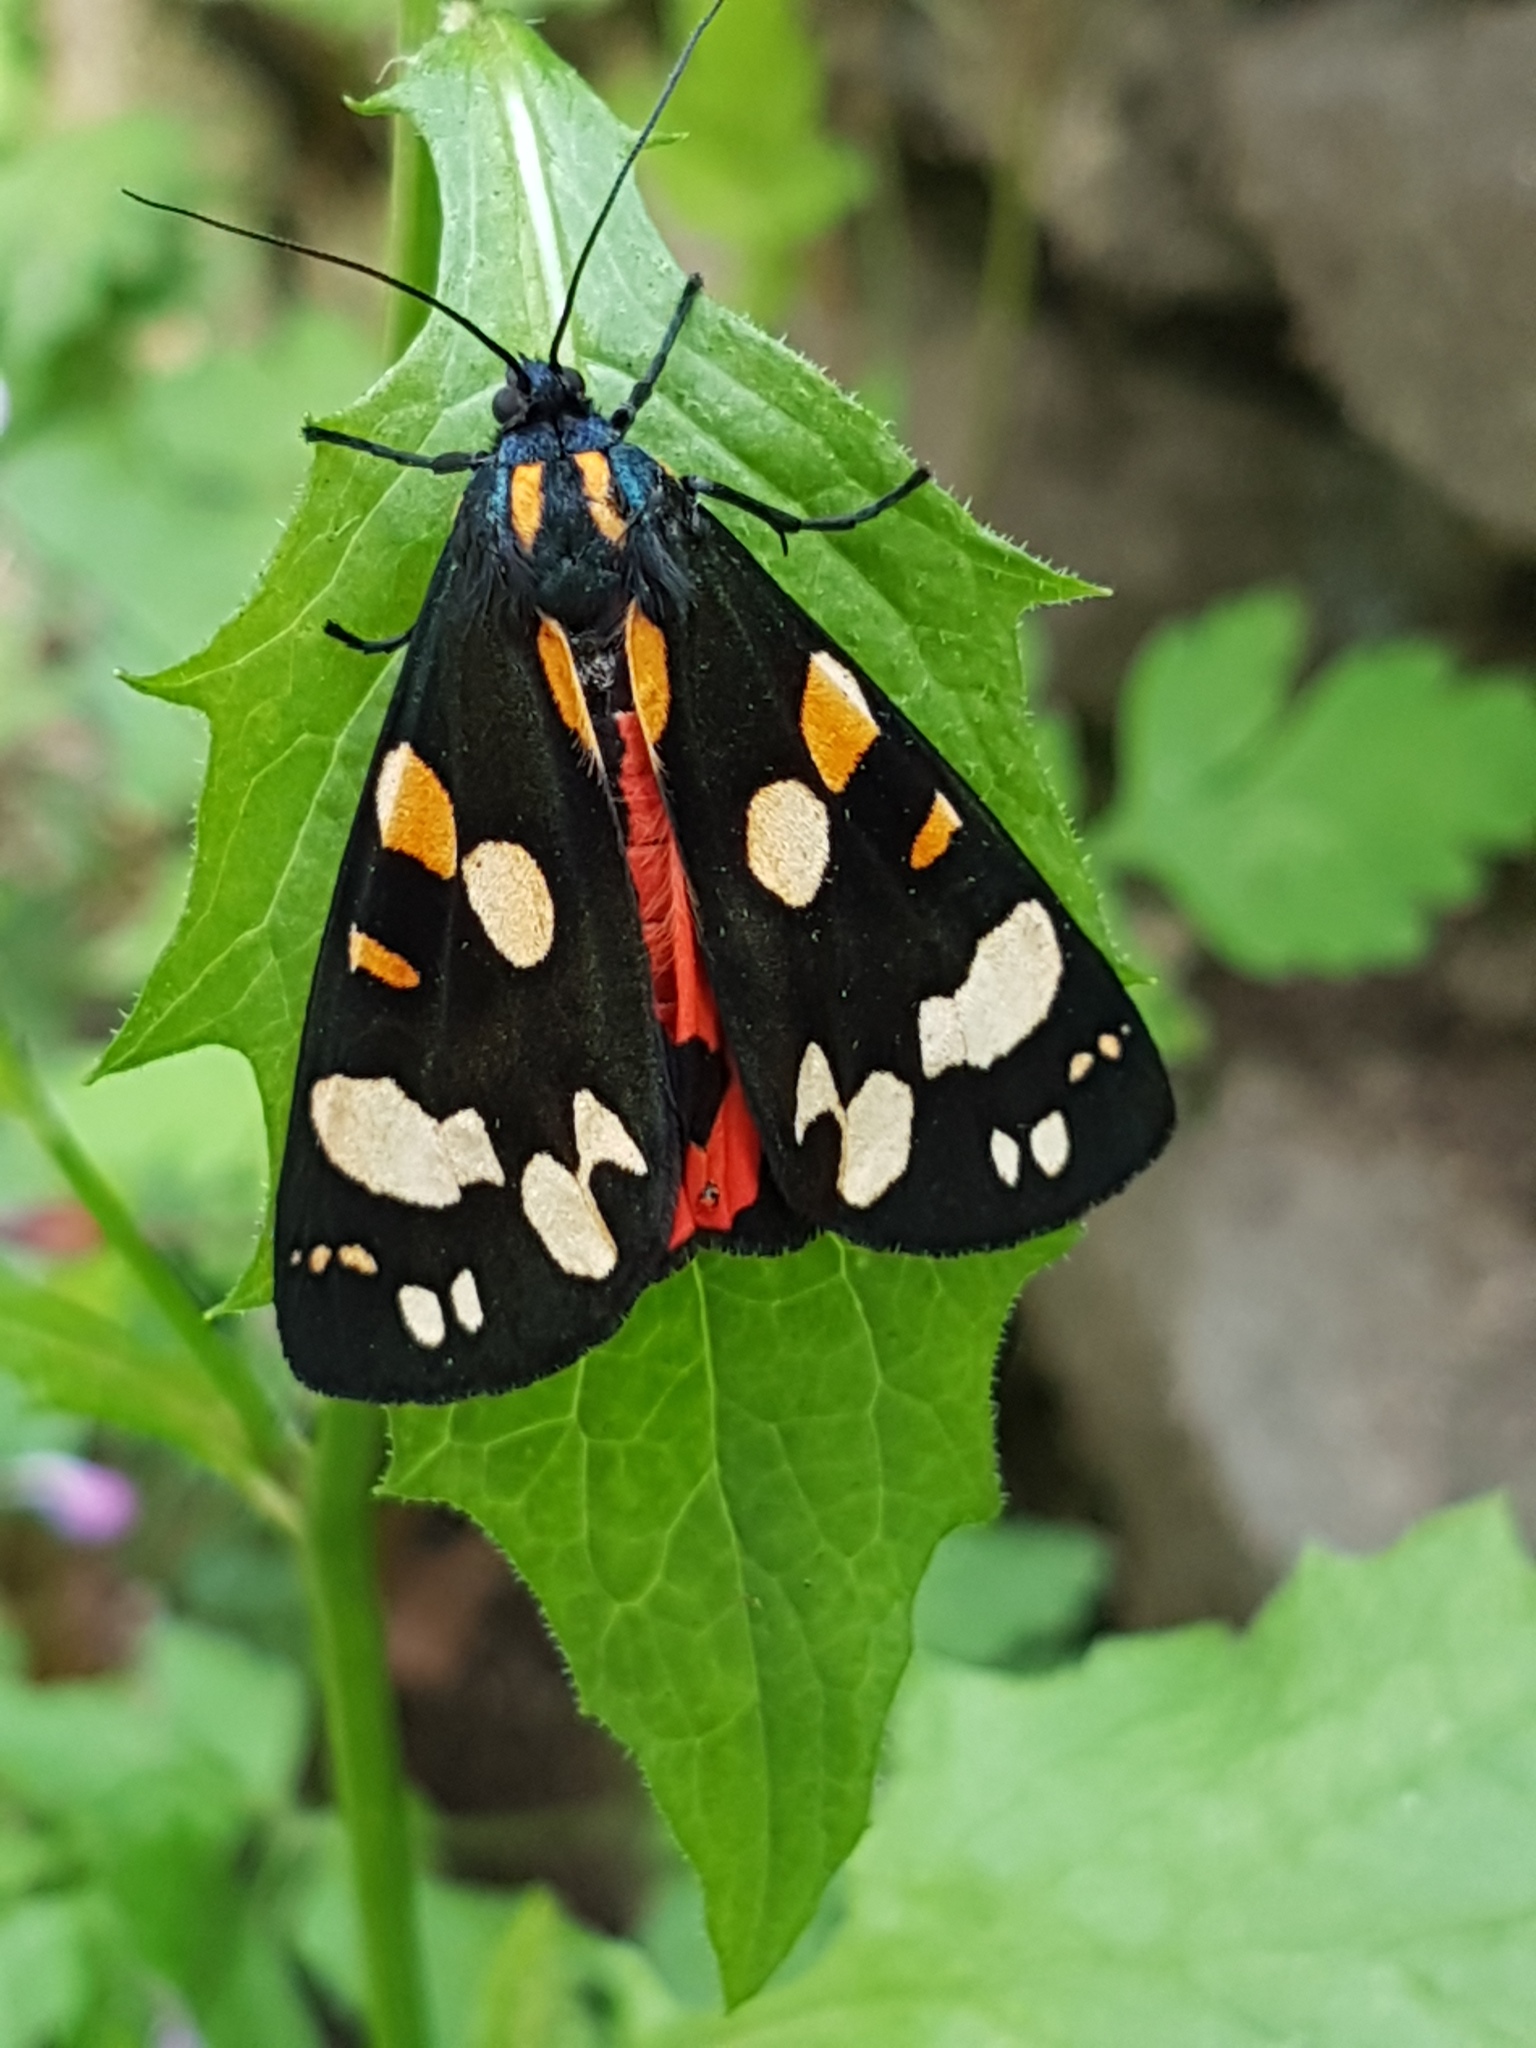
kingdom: Animalia
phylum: Arthropoda
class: Insecta
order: Lepidoptera
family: Erebidae
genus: Callimorpha
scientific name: Callimorpha dominula
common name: Scarlet tiger
